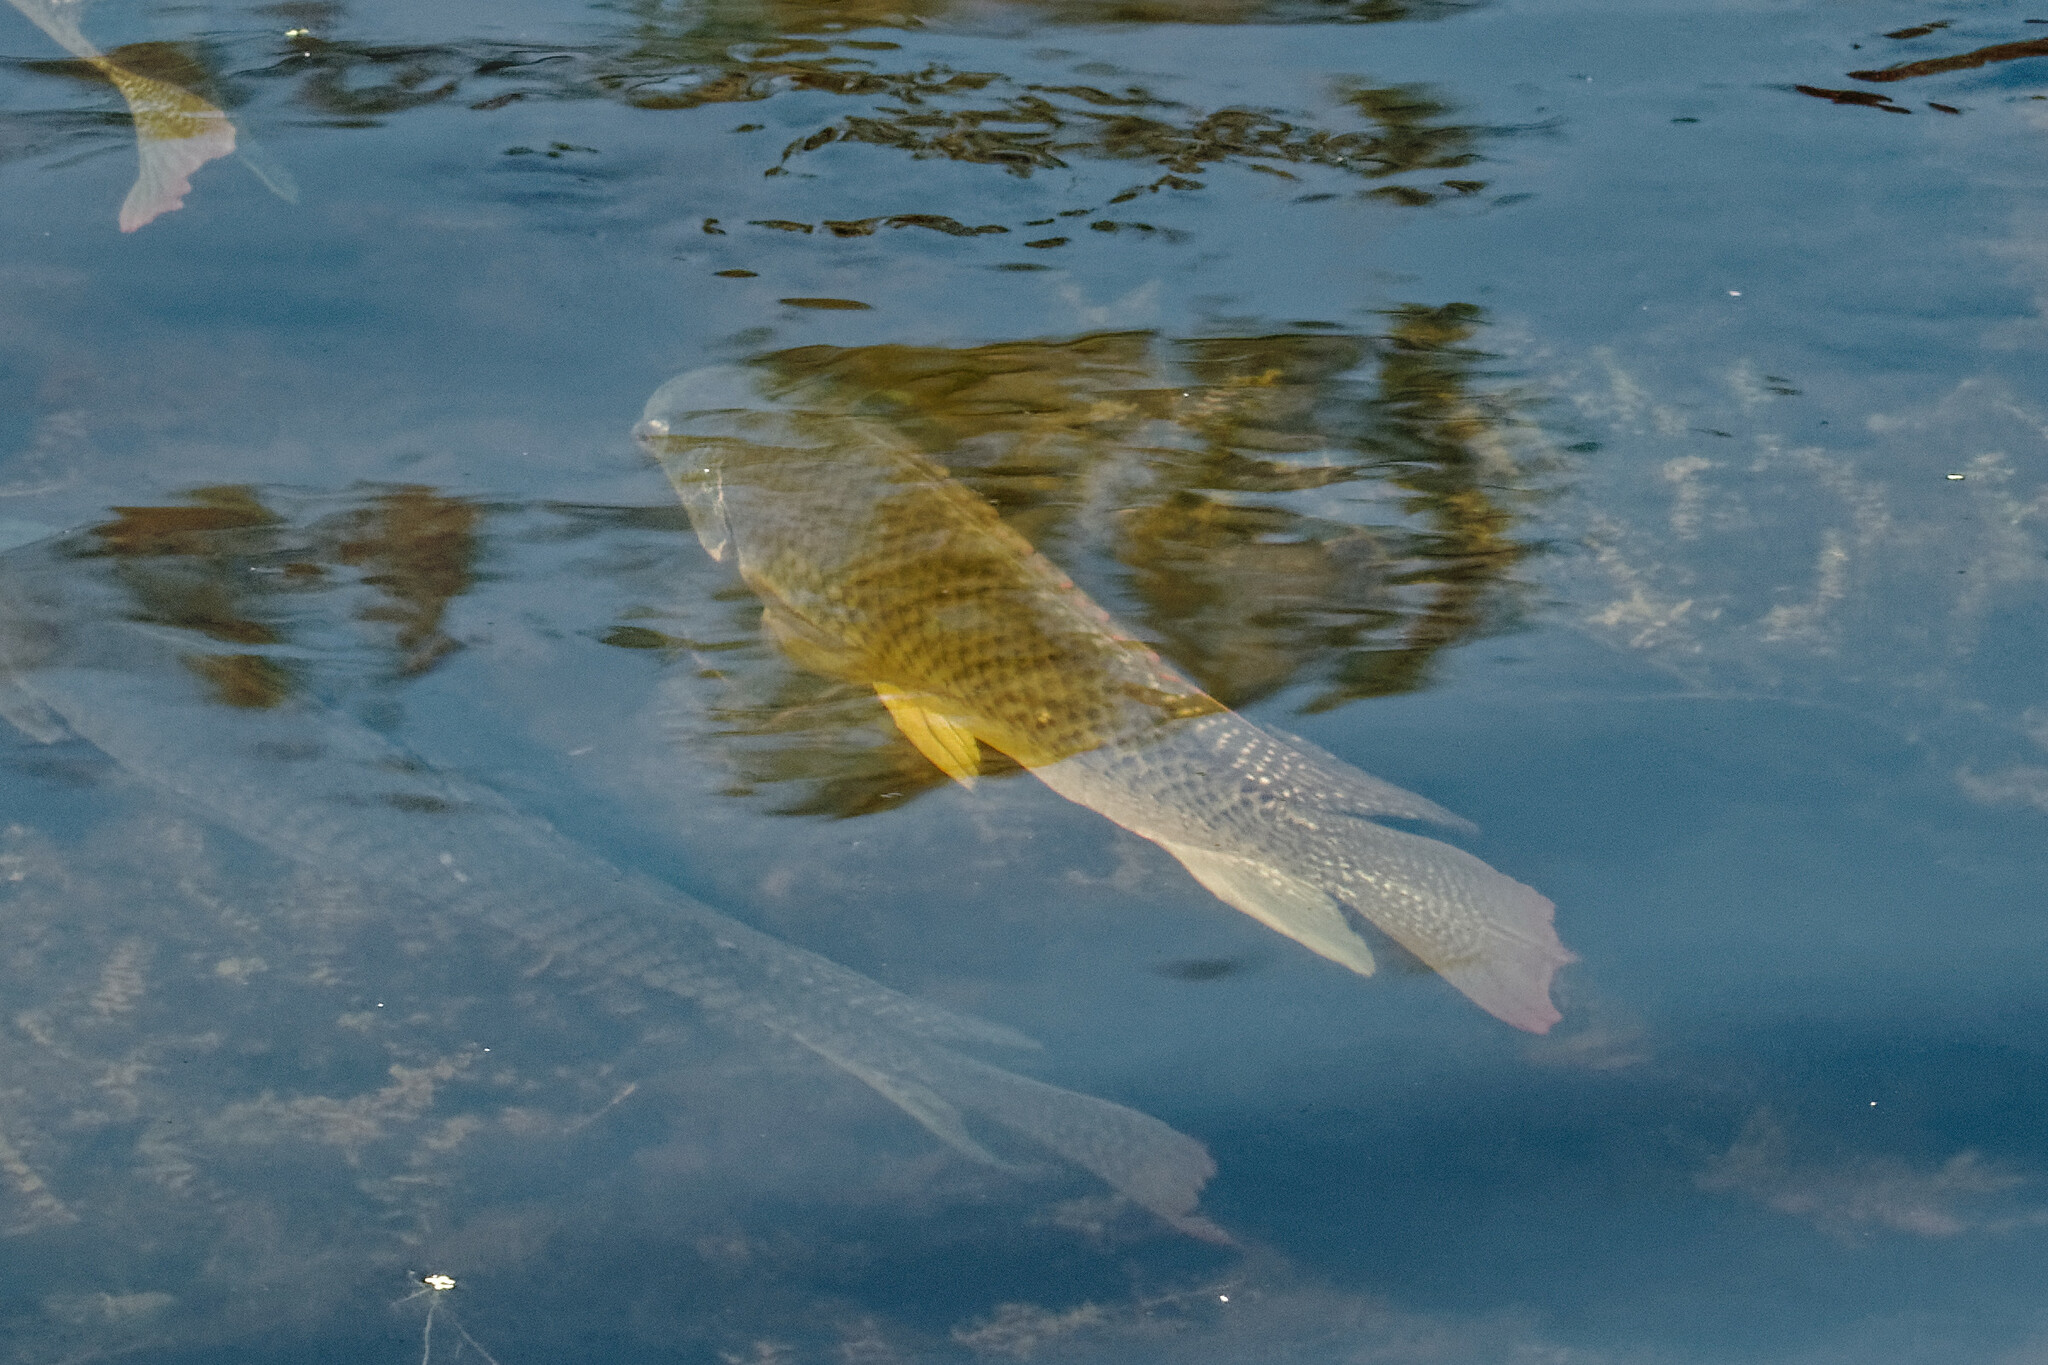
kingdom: Animalia
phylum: Chordata
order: Perciformes
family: Cichlidae
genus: Oreochromis
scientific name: Oreochromis aureus
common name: Blue tilapia
